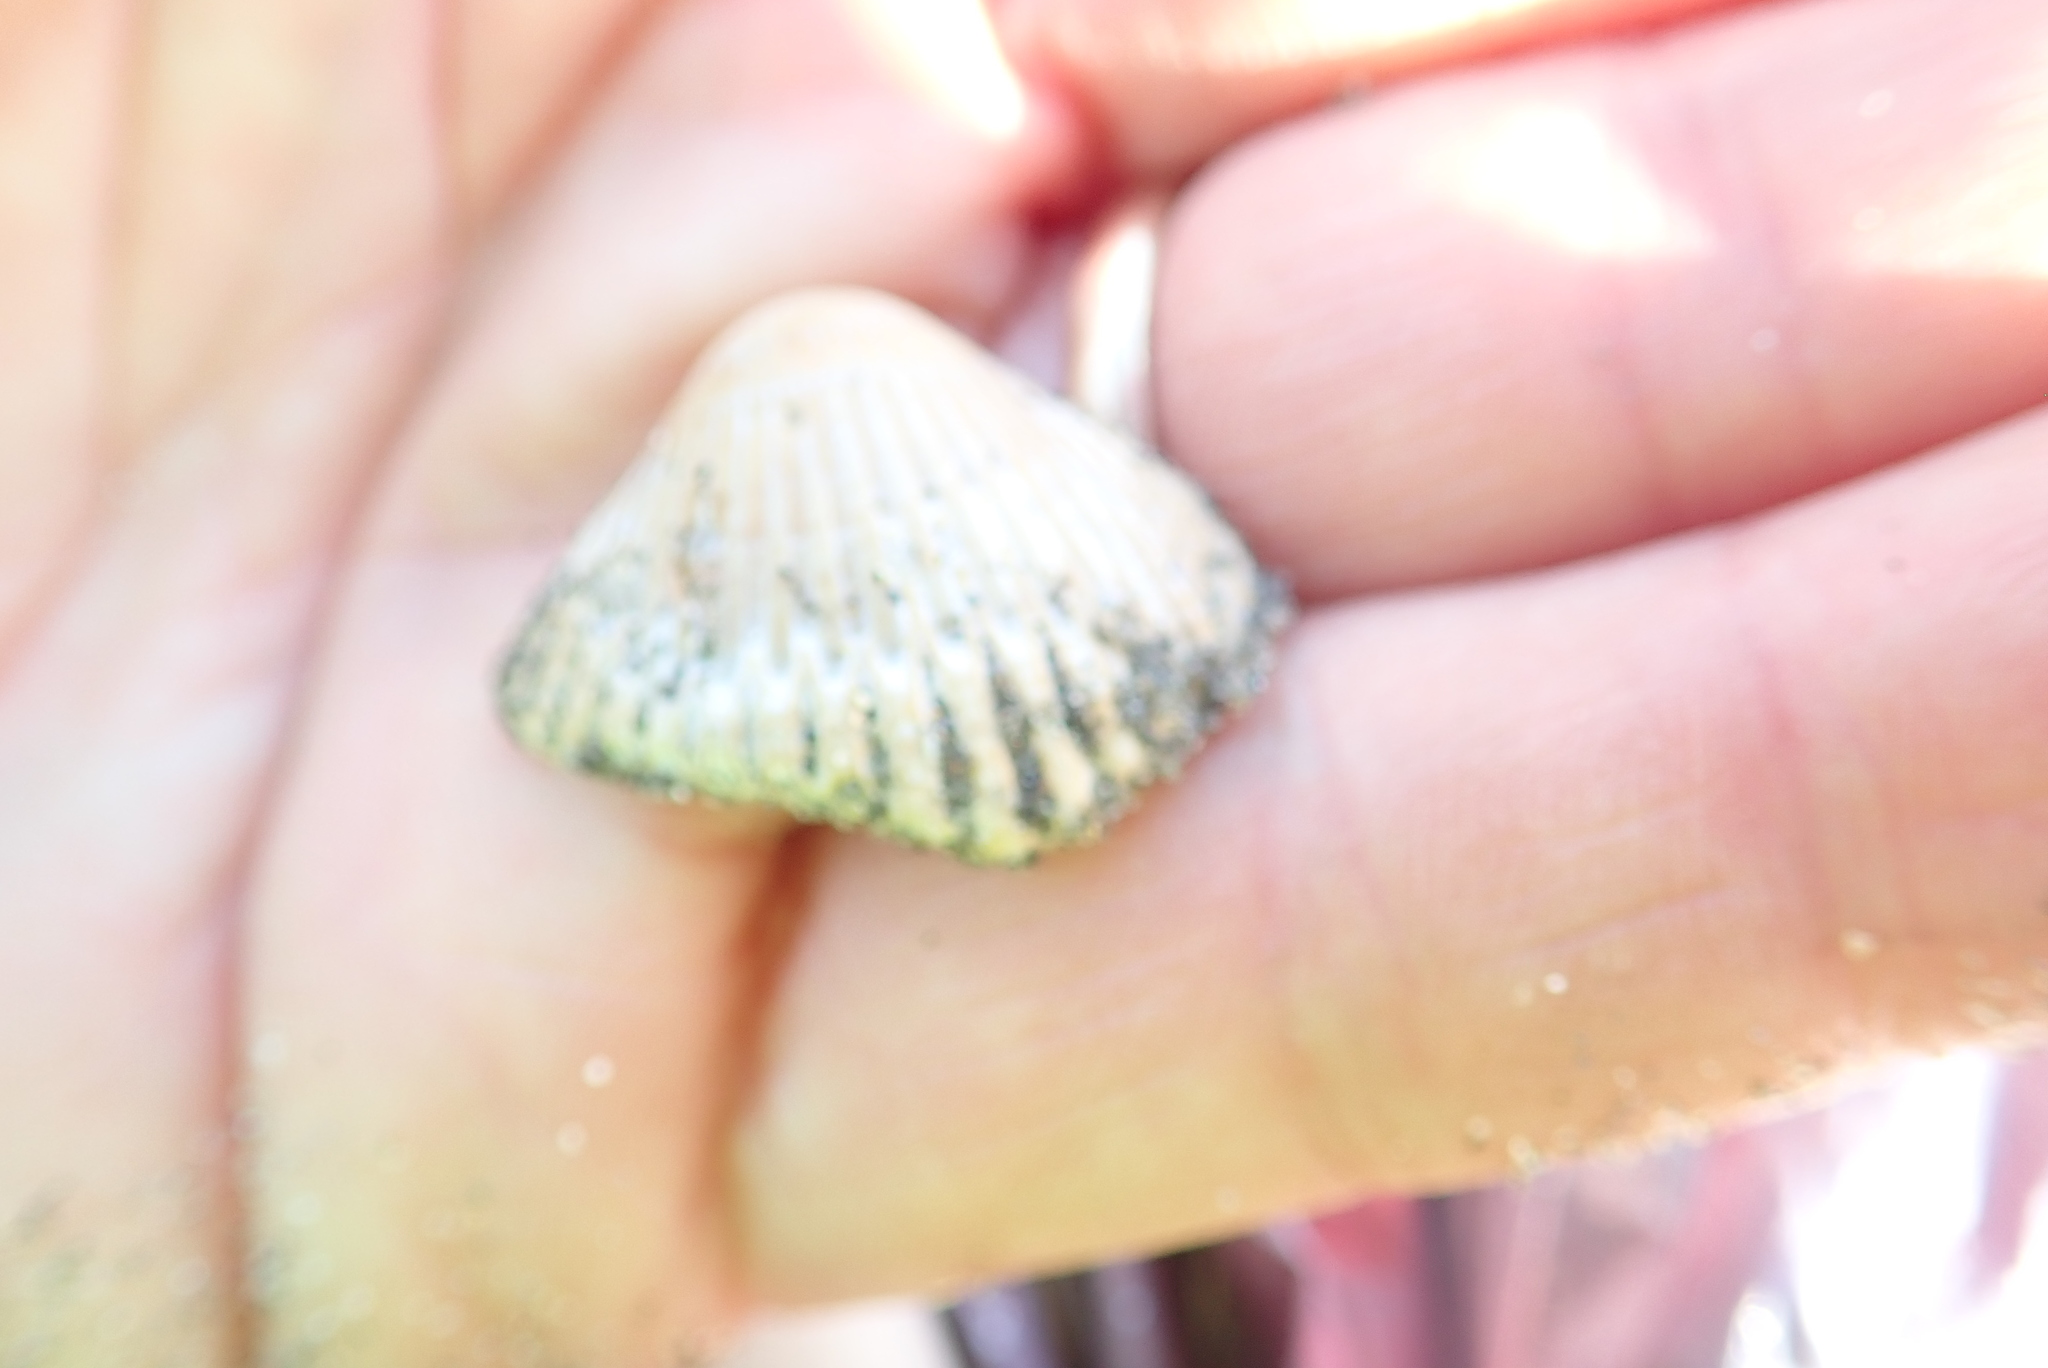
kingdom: Animalia
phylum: Mollusca
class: Bivalvia
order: Carditida
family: Carditidae
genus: Purpurocardia
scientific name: Purpurocardia purpurata
